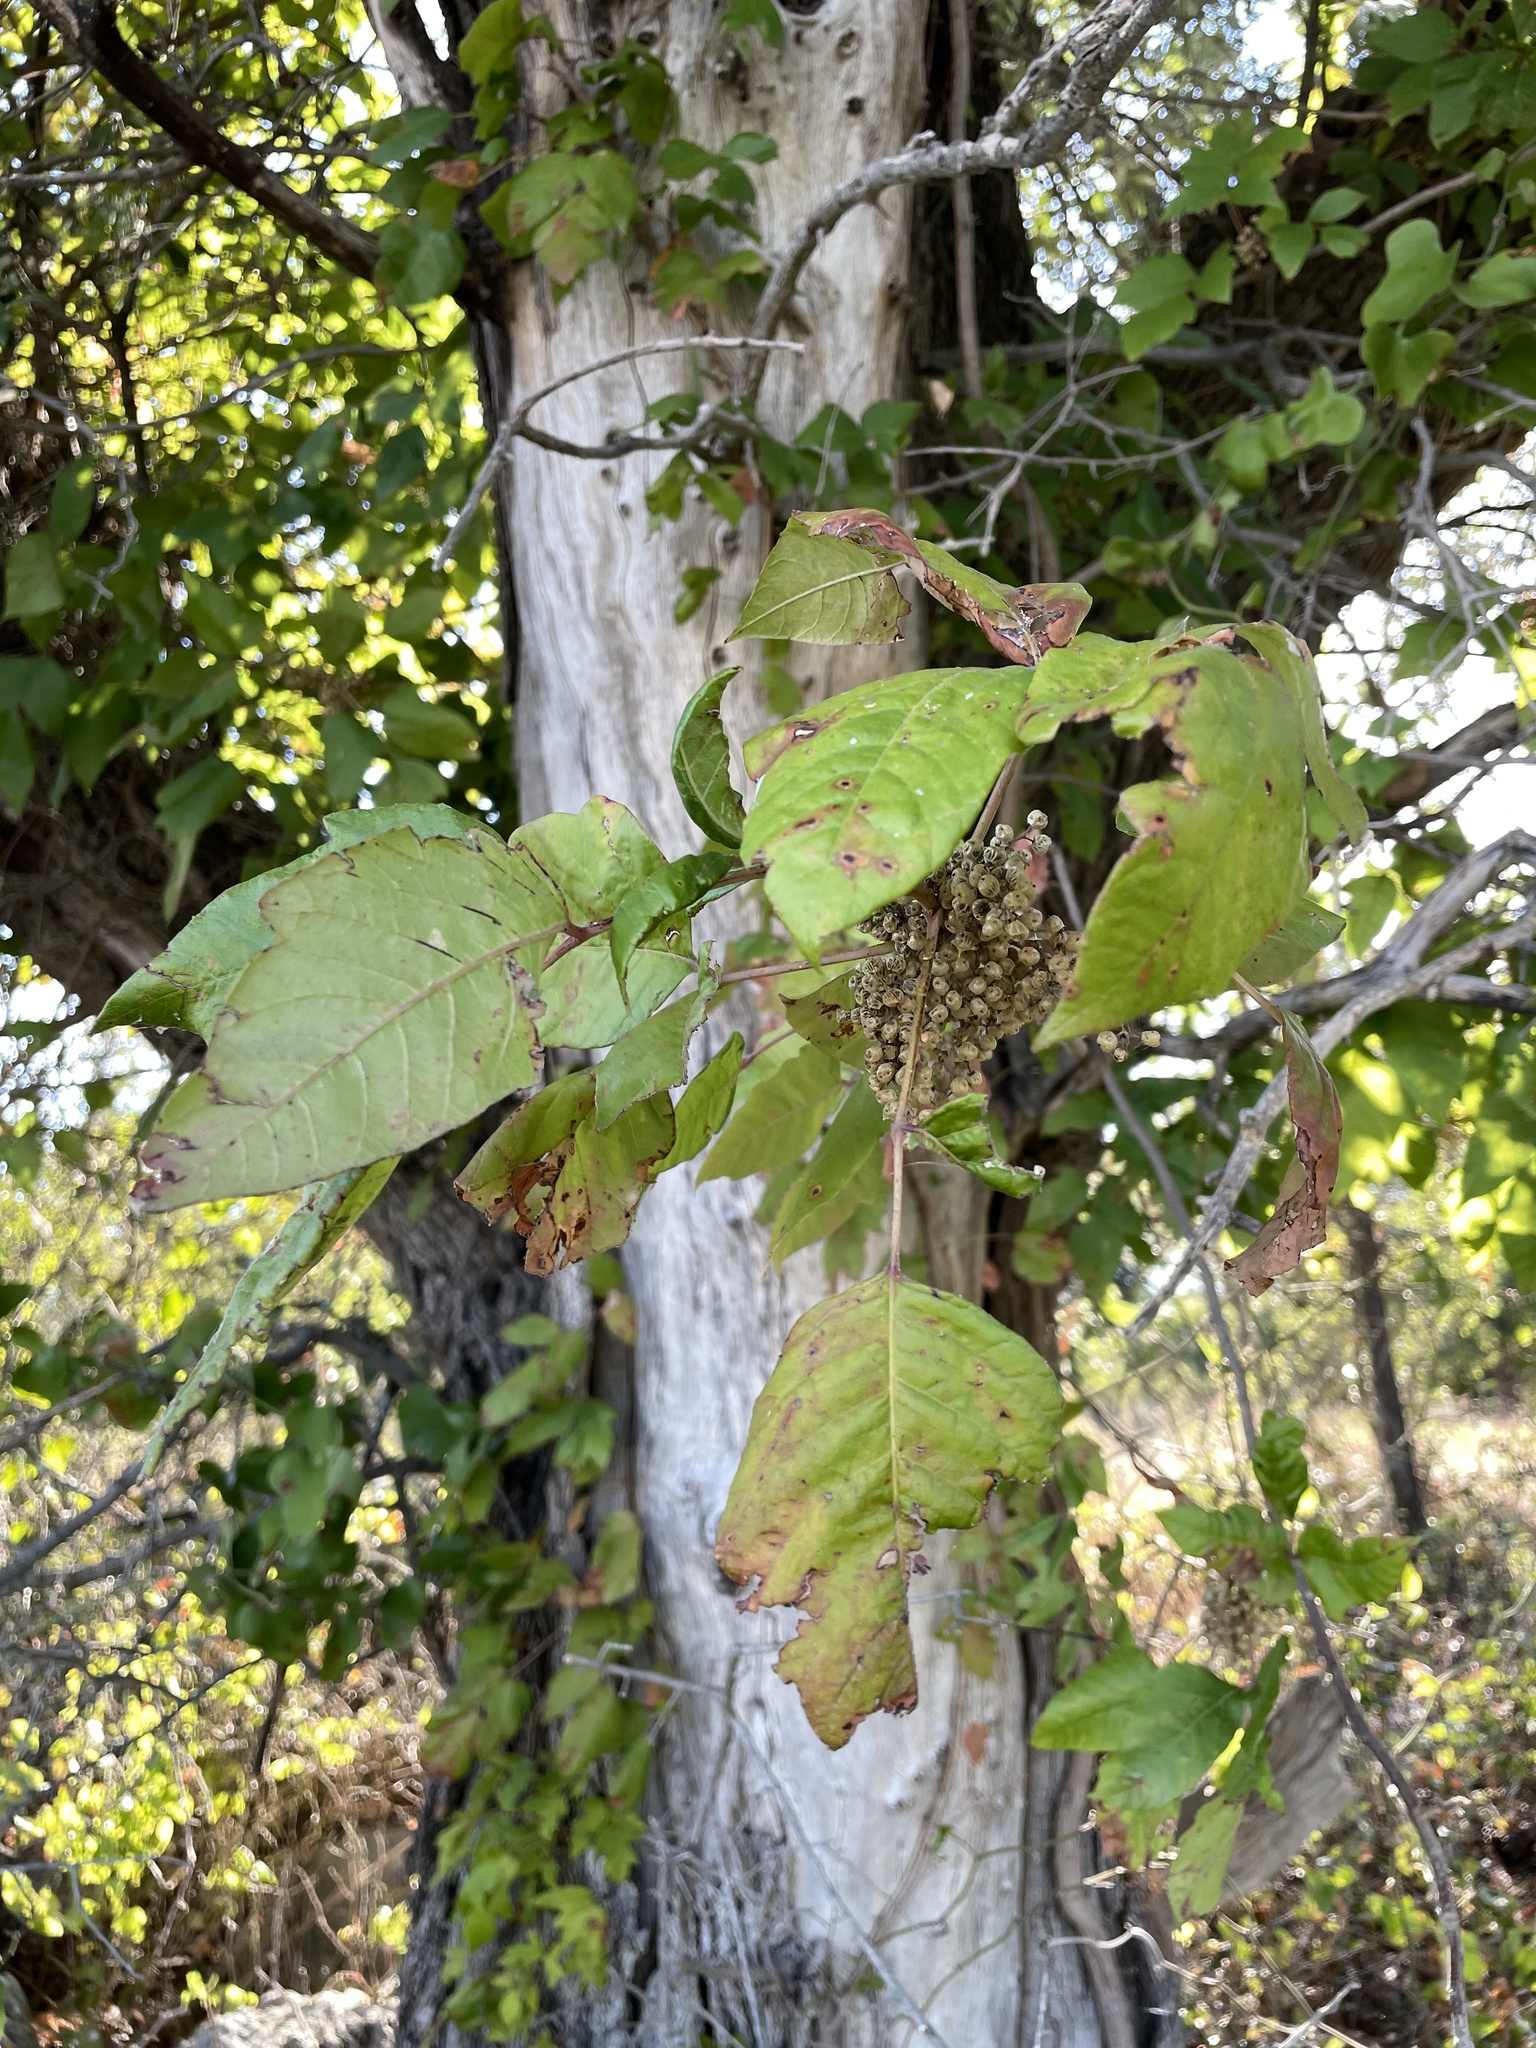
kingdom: Plantae
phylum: Tracheophyta
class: Magnoliopsida
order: Sapindales
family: Anacardiaceae
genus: Toxicodendron
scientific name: Toxicodendron radicans
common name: Poison ivy
